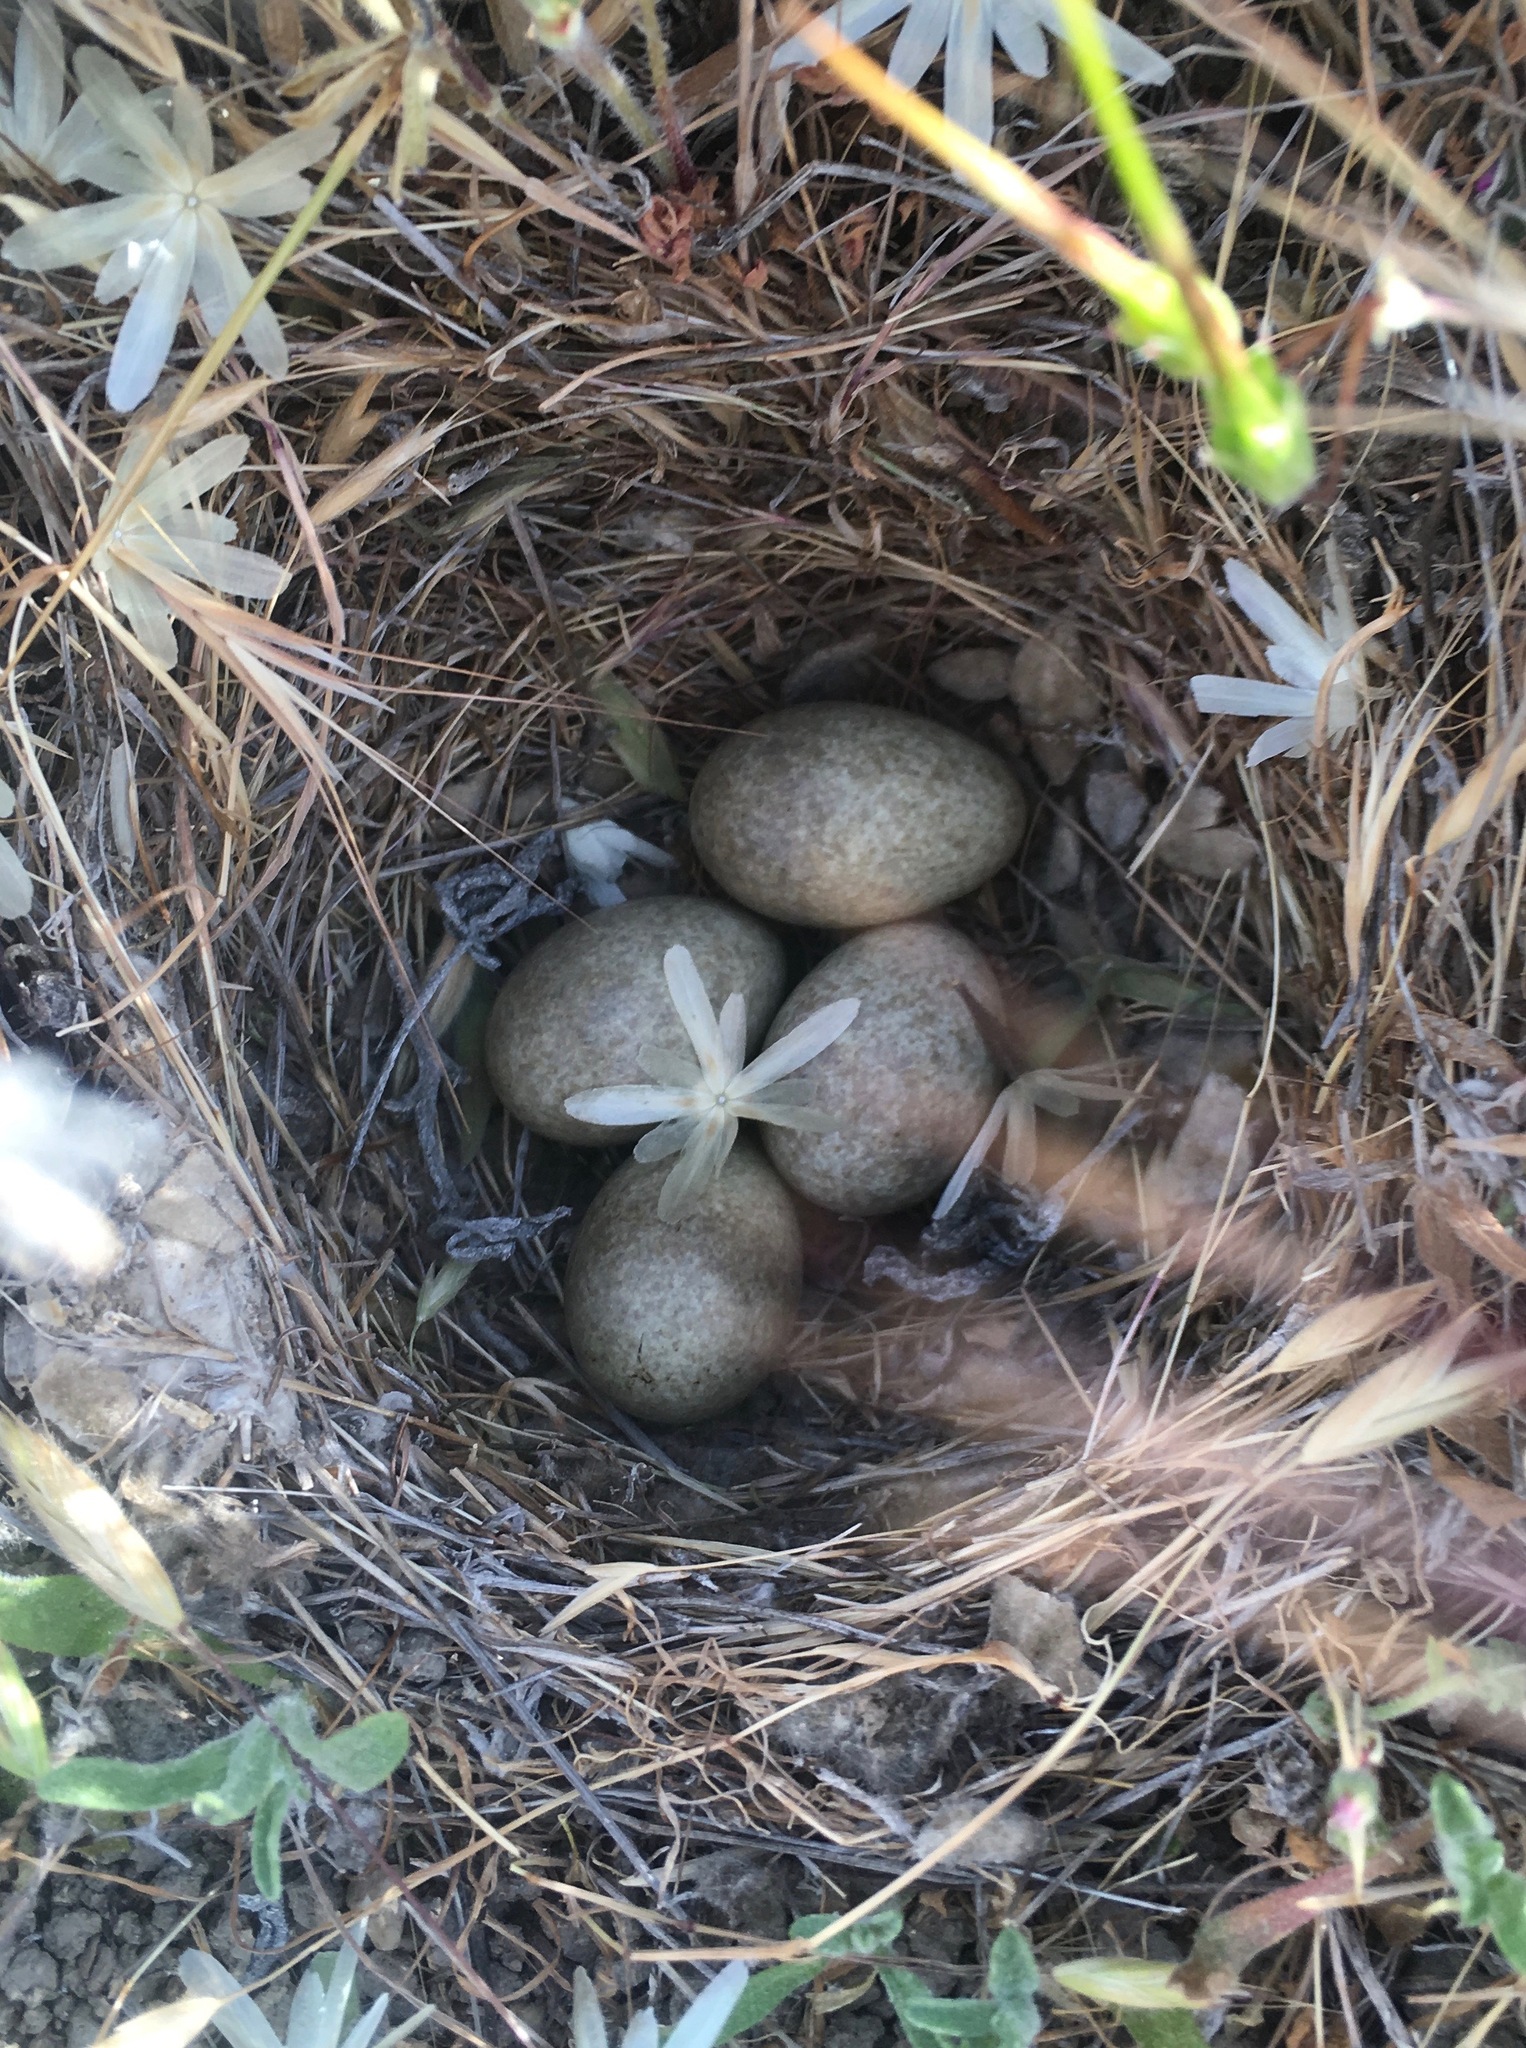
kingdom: Animalia
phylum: Chordata
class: Aves
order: Passeriformes
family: Alaudidae
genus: Eremophila
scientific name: Eremophila alpestris
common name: Horned lark
